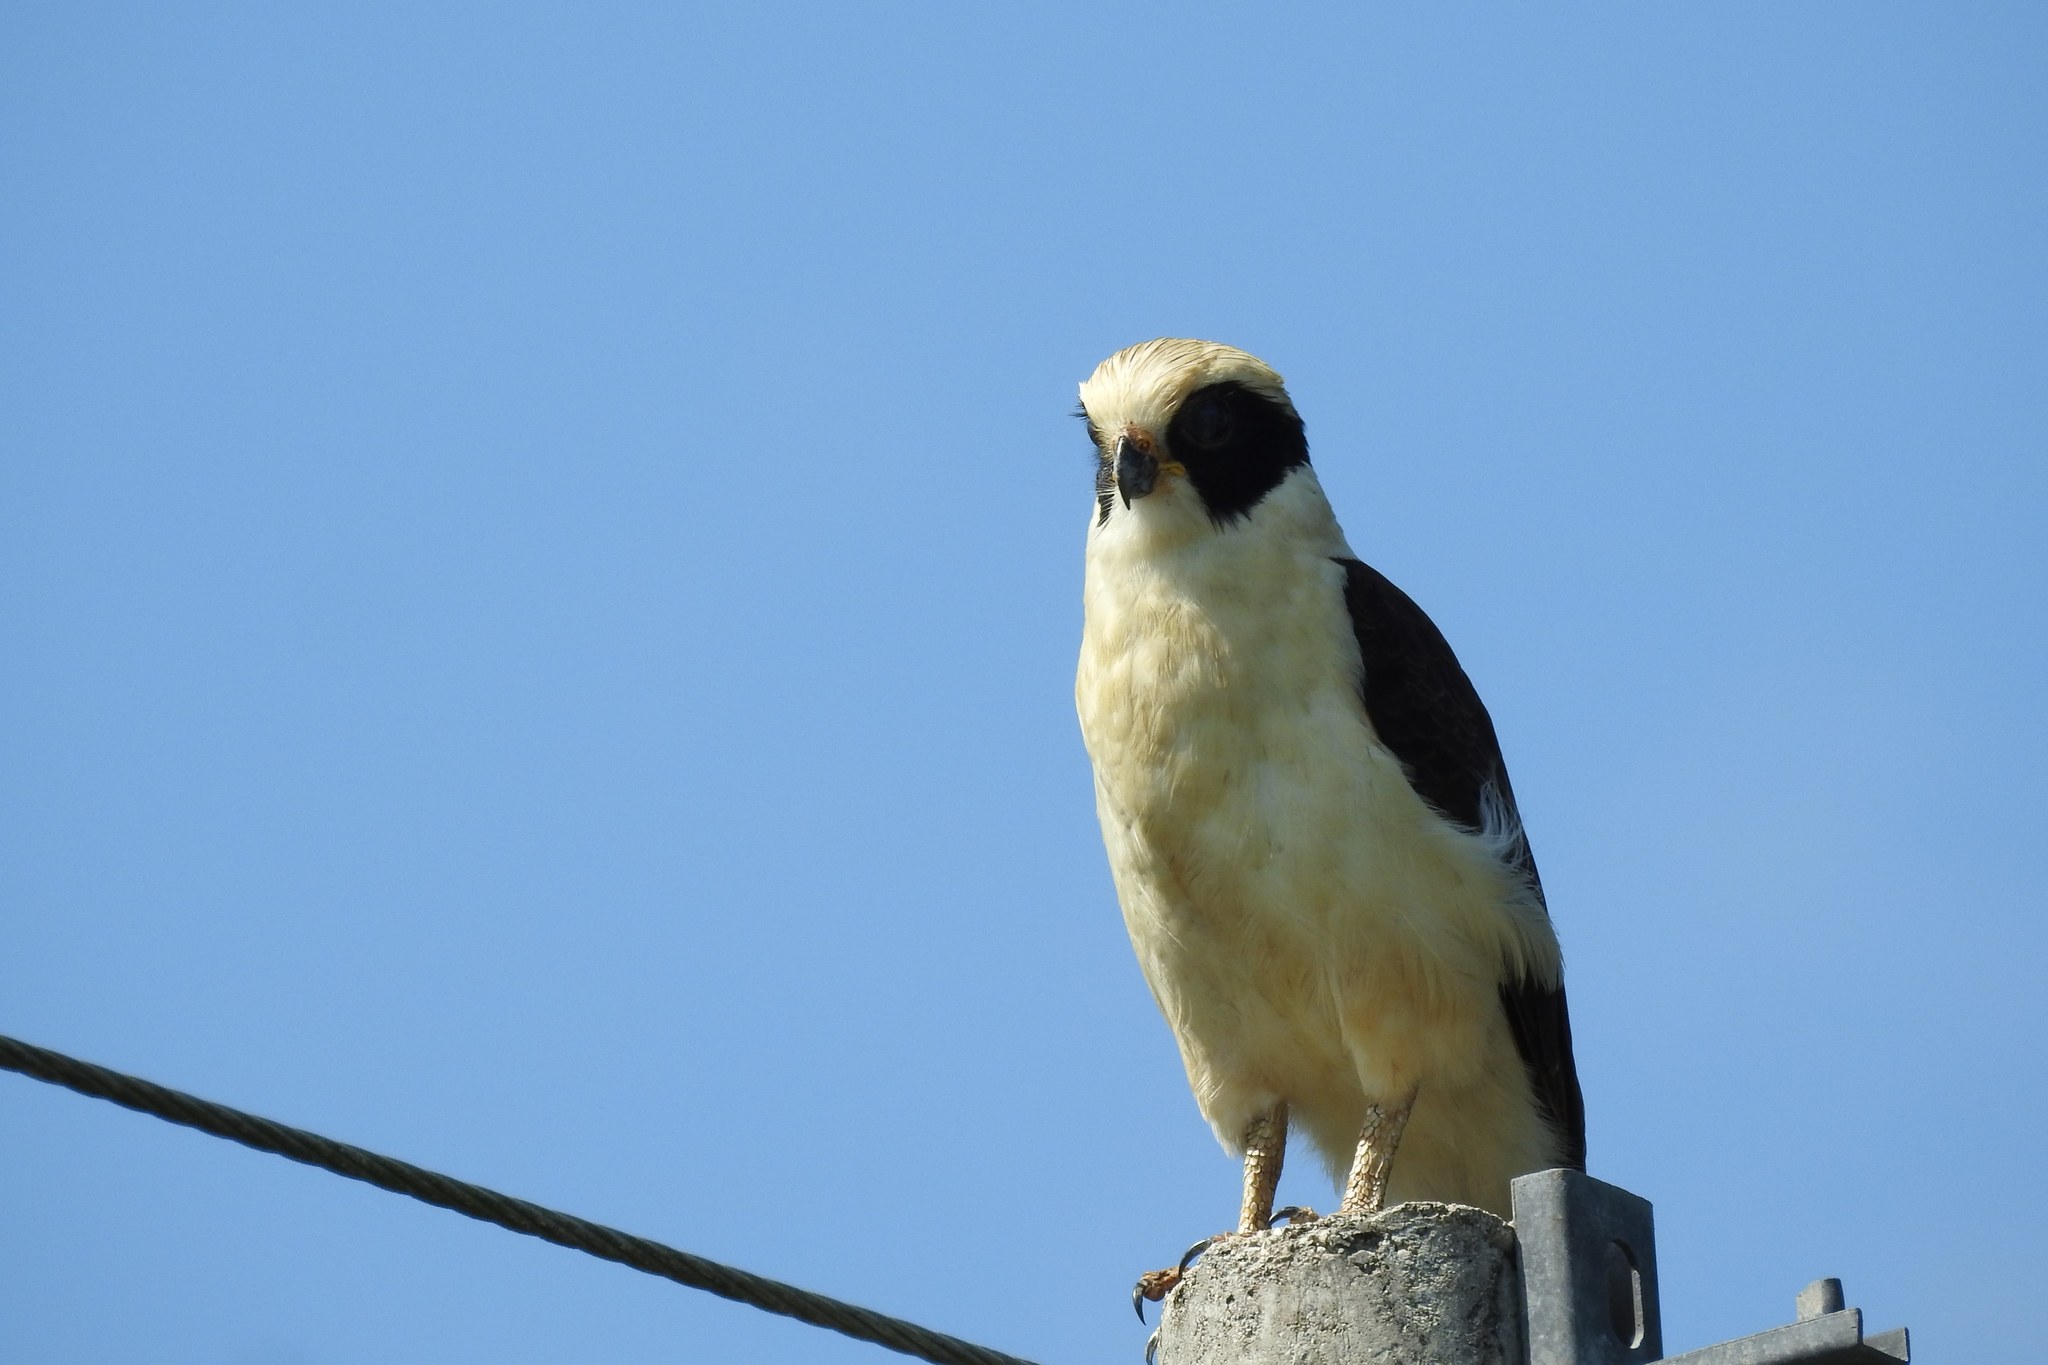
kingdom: Animalia
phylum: Chordata
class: Aves
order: Falconiformes
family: Falconidae
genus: Herpetotheres
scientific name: Herpetotheres cachinnans
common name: Laughing falcon
